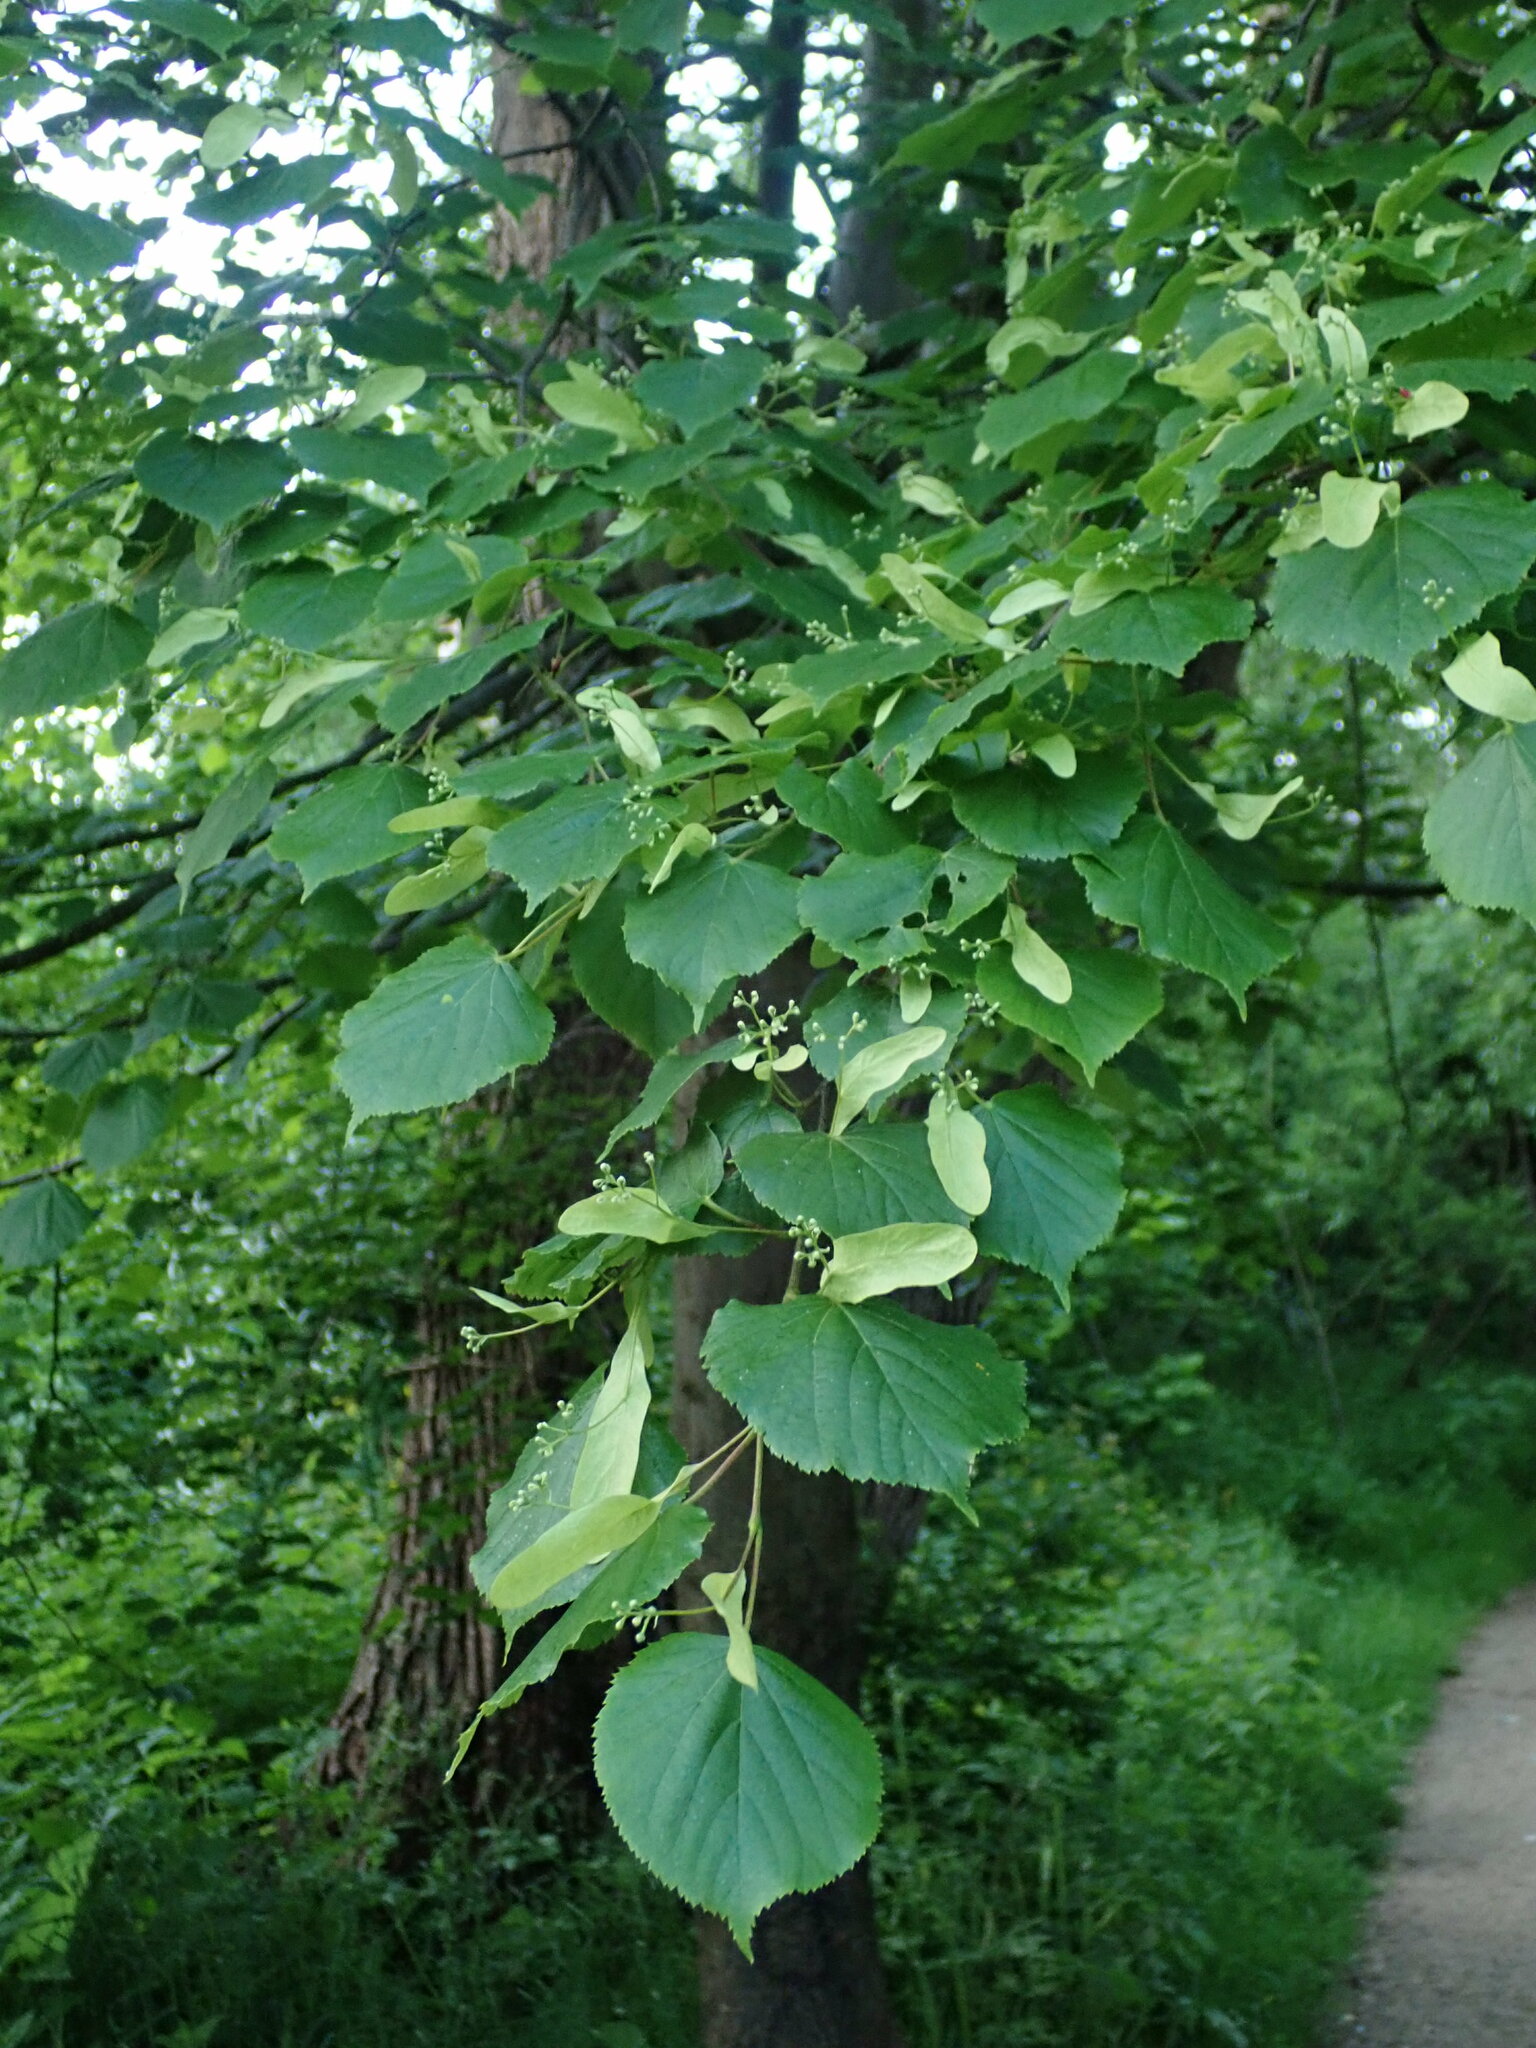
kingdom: Plantae
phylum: Tracheophyta
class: Magnoliopsida
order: Malvales
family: Malvaceae
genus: Tilia
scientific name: Tilia cordata
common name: Small-leaved lime
